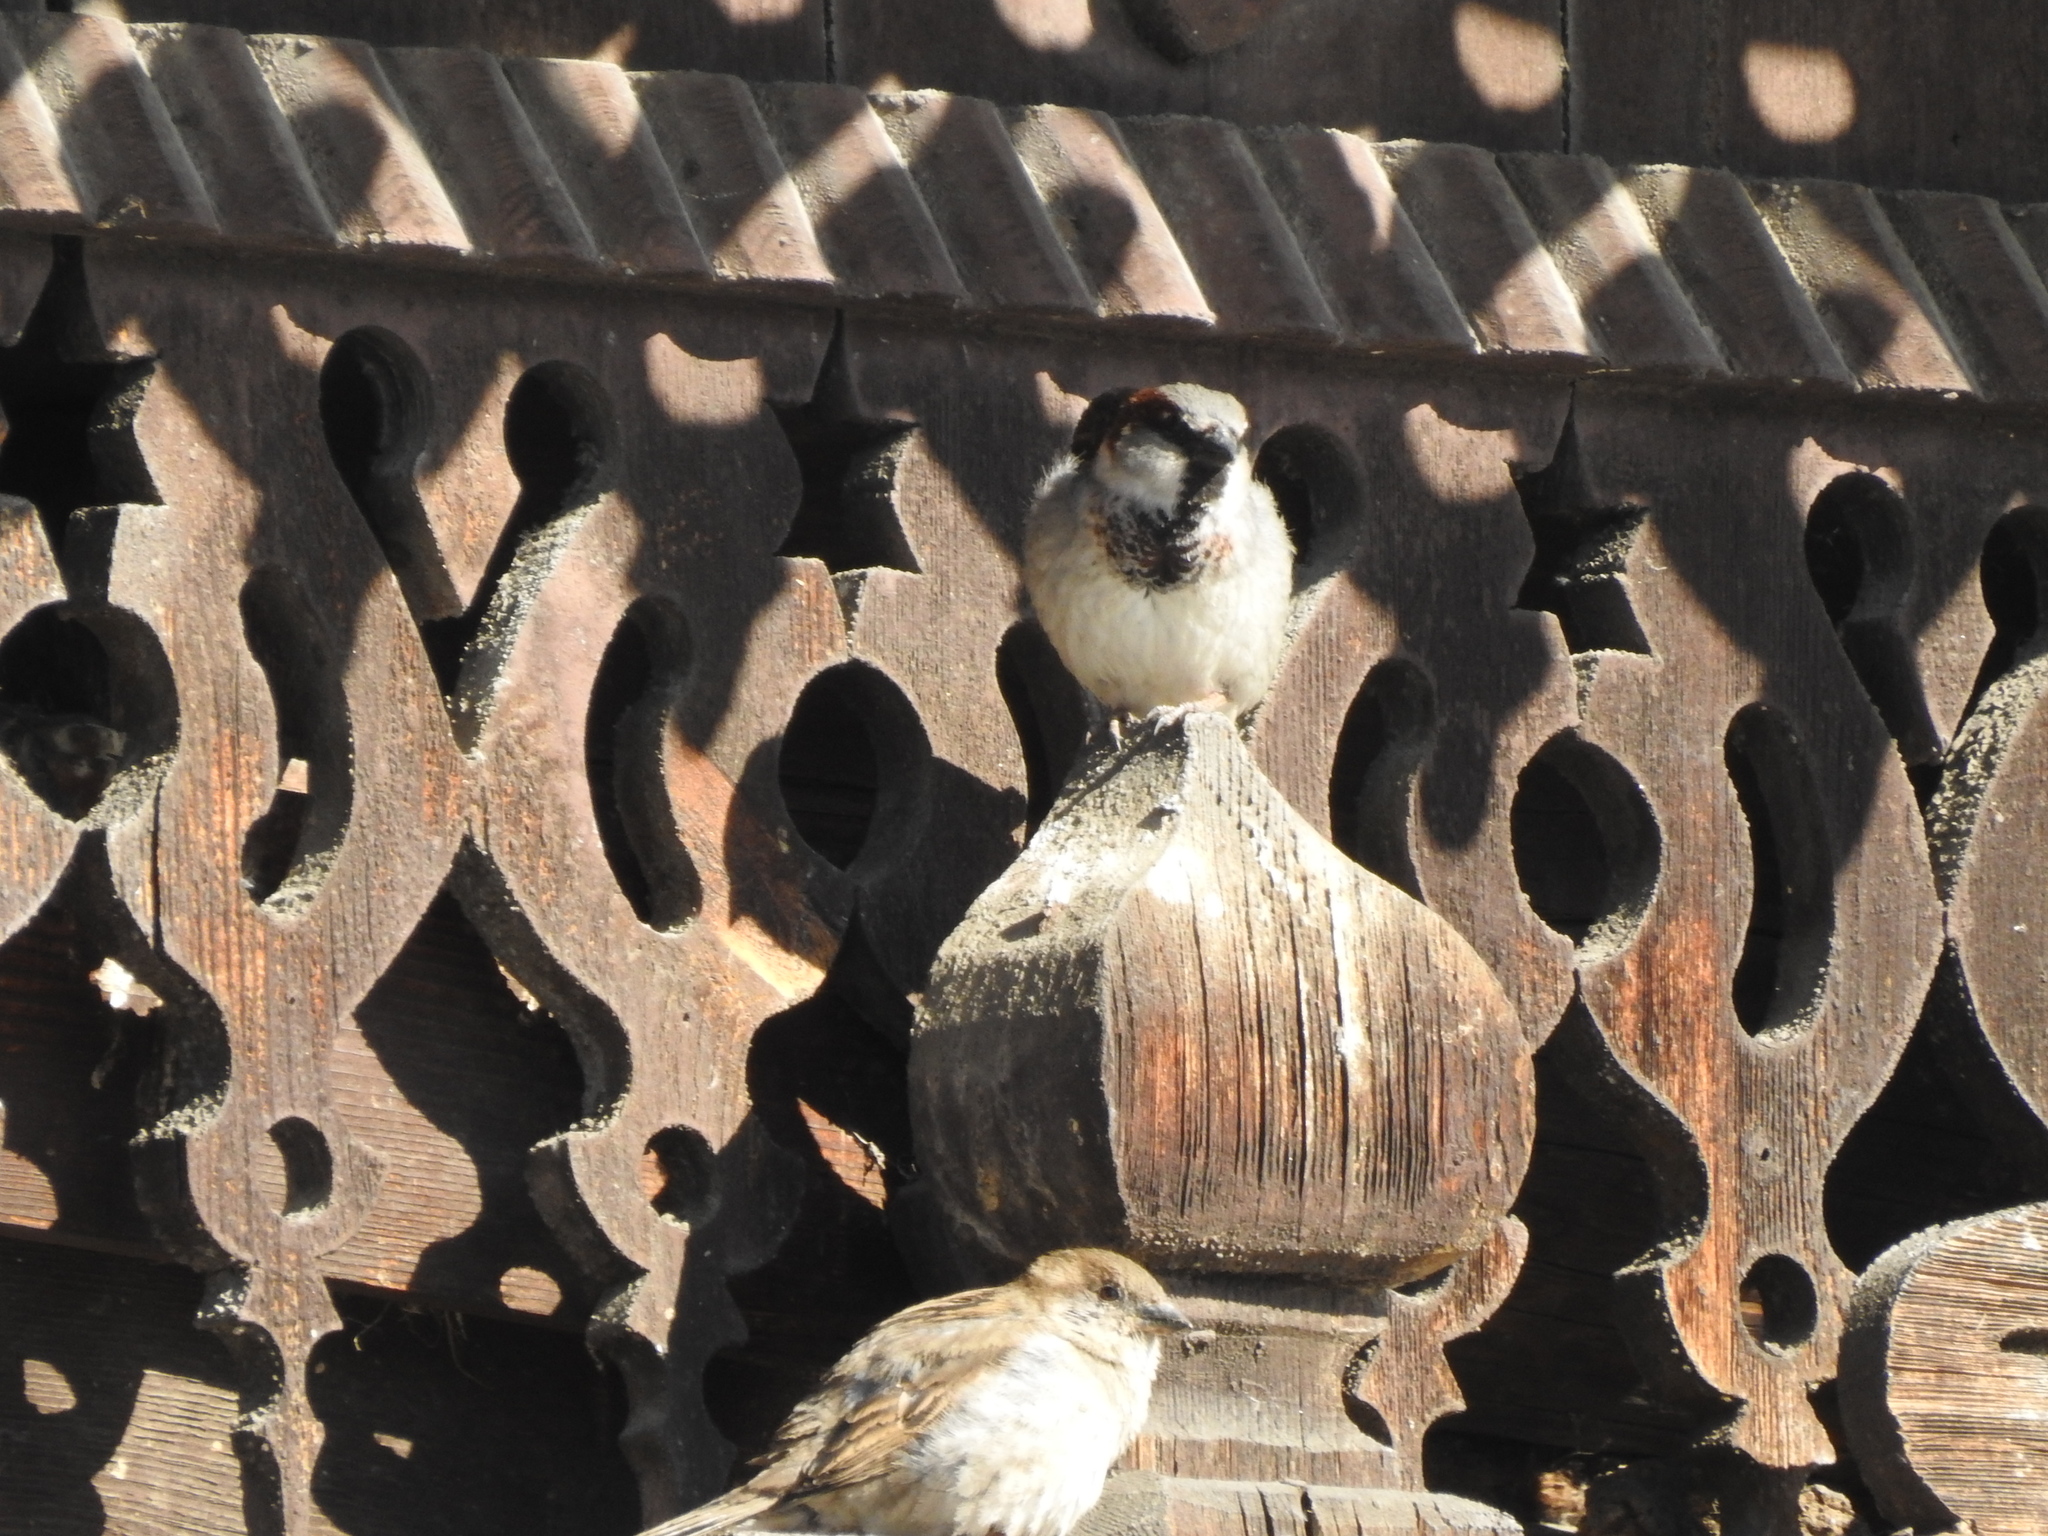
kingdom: Animalia
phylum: Chordata
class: Aves
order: Passeriformes
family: Passeridae
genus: Passer
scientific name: Passer domesticus
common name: House sparrow
